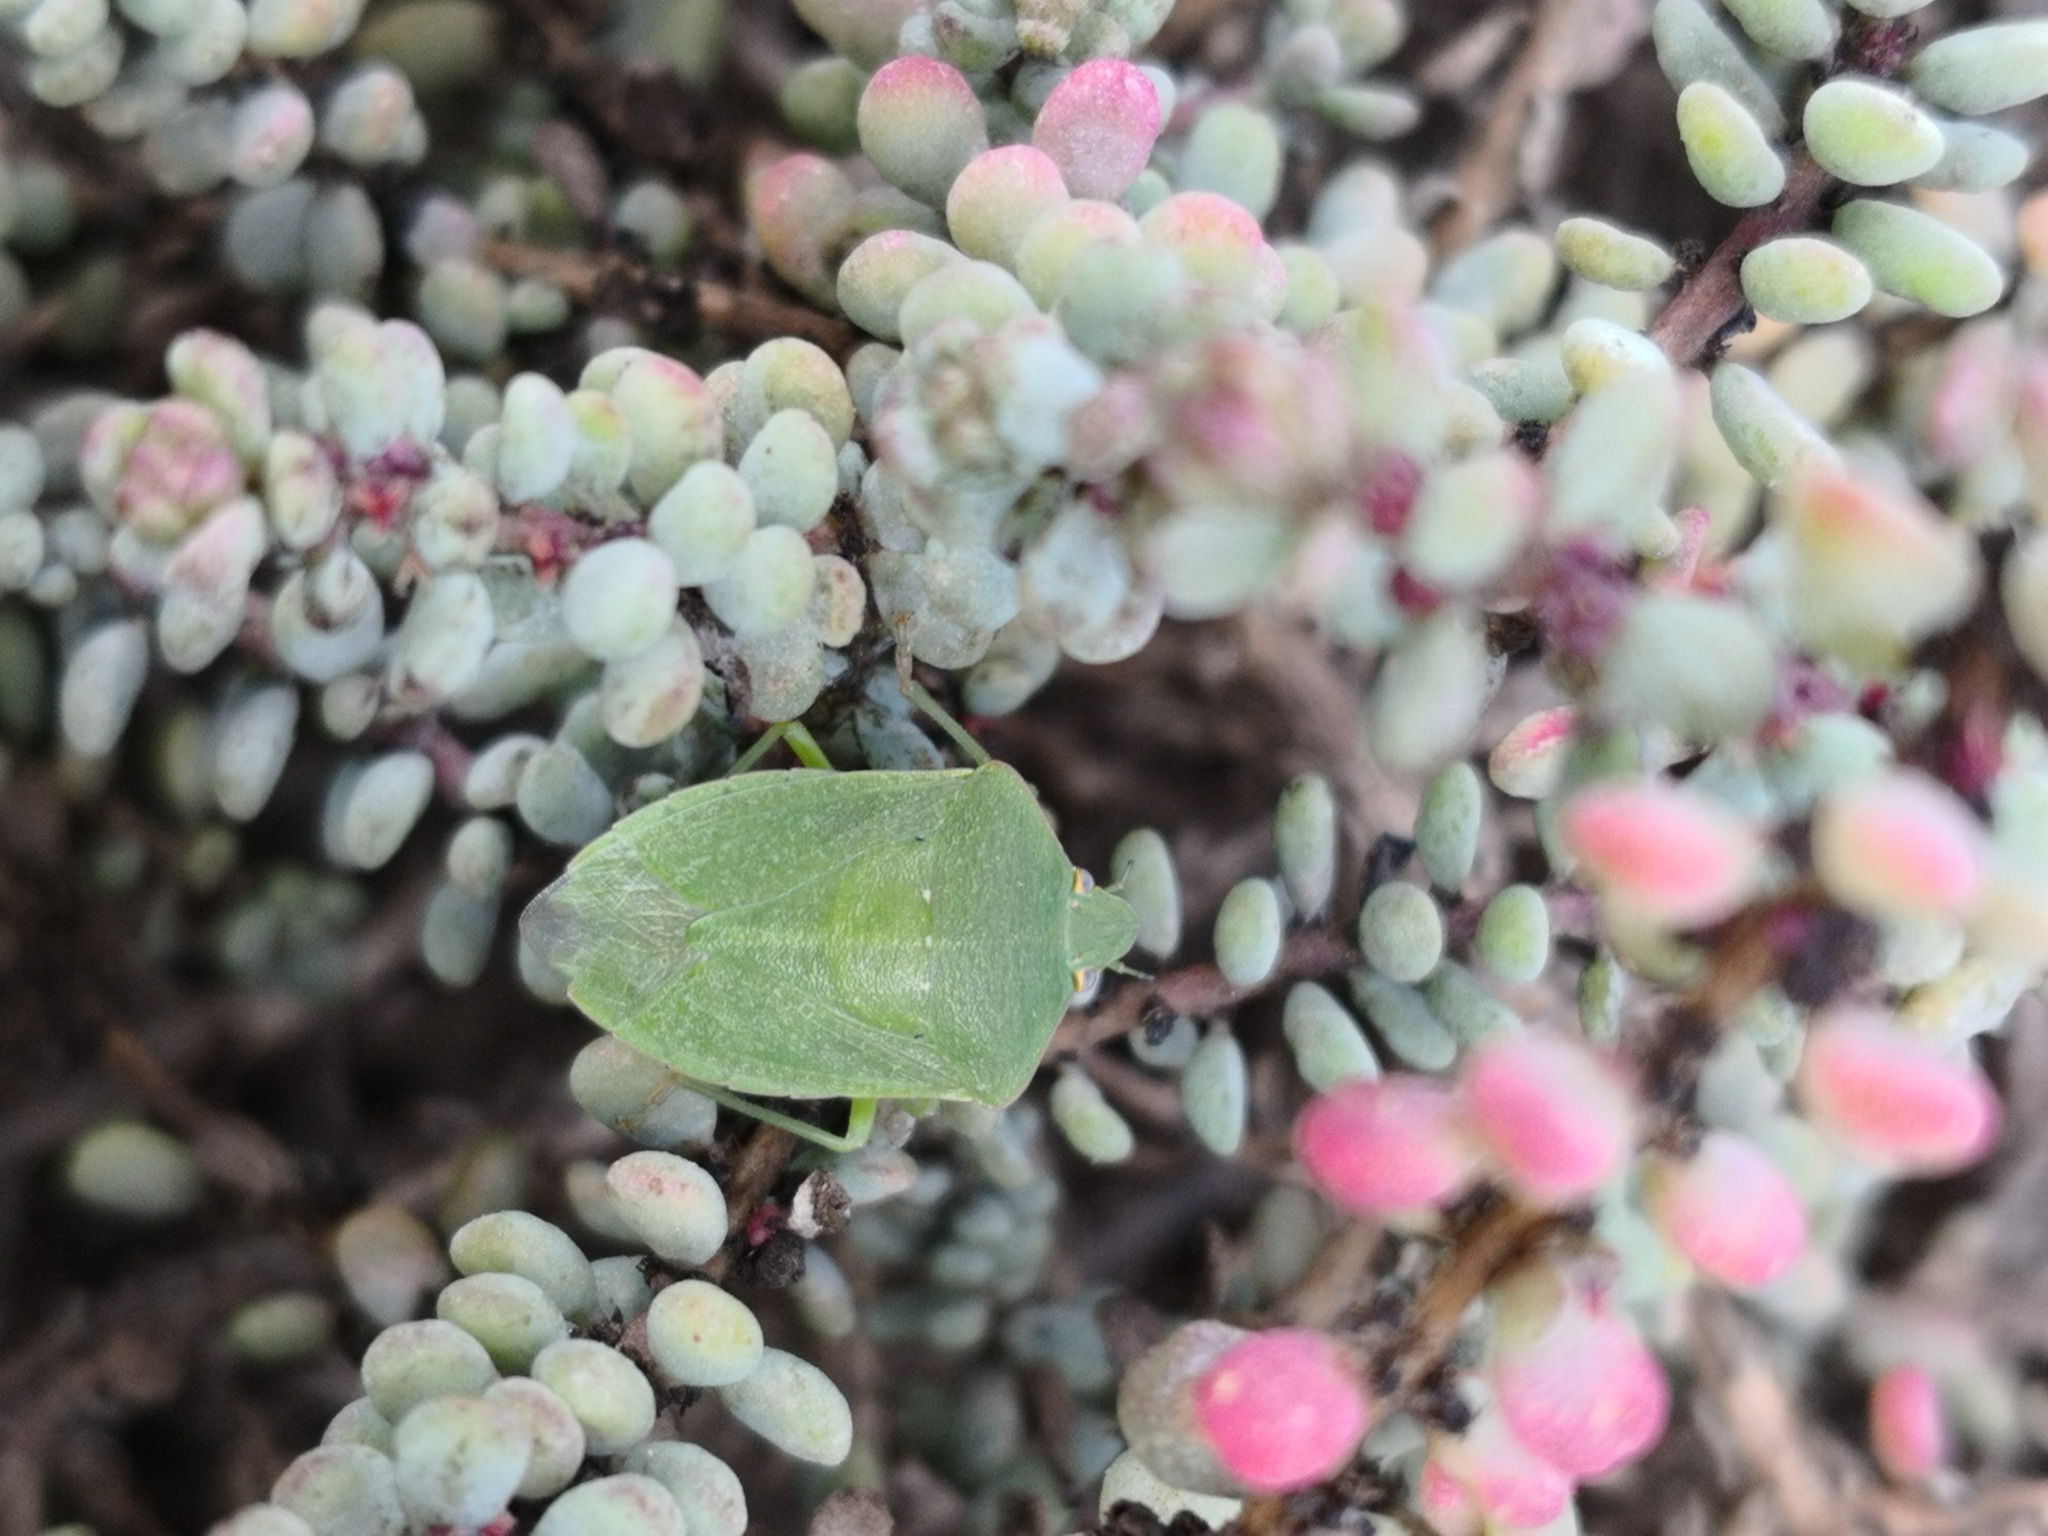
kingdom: Animalia
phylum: Arthropoda
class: Insecta
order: Hemiptera
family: Pentatomidae
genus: Nezara
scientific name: Nezara viridula
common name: Southern green stink bug
